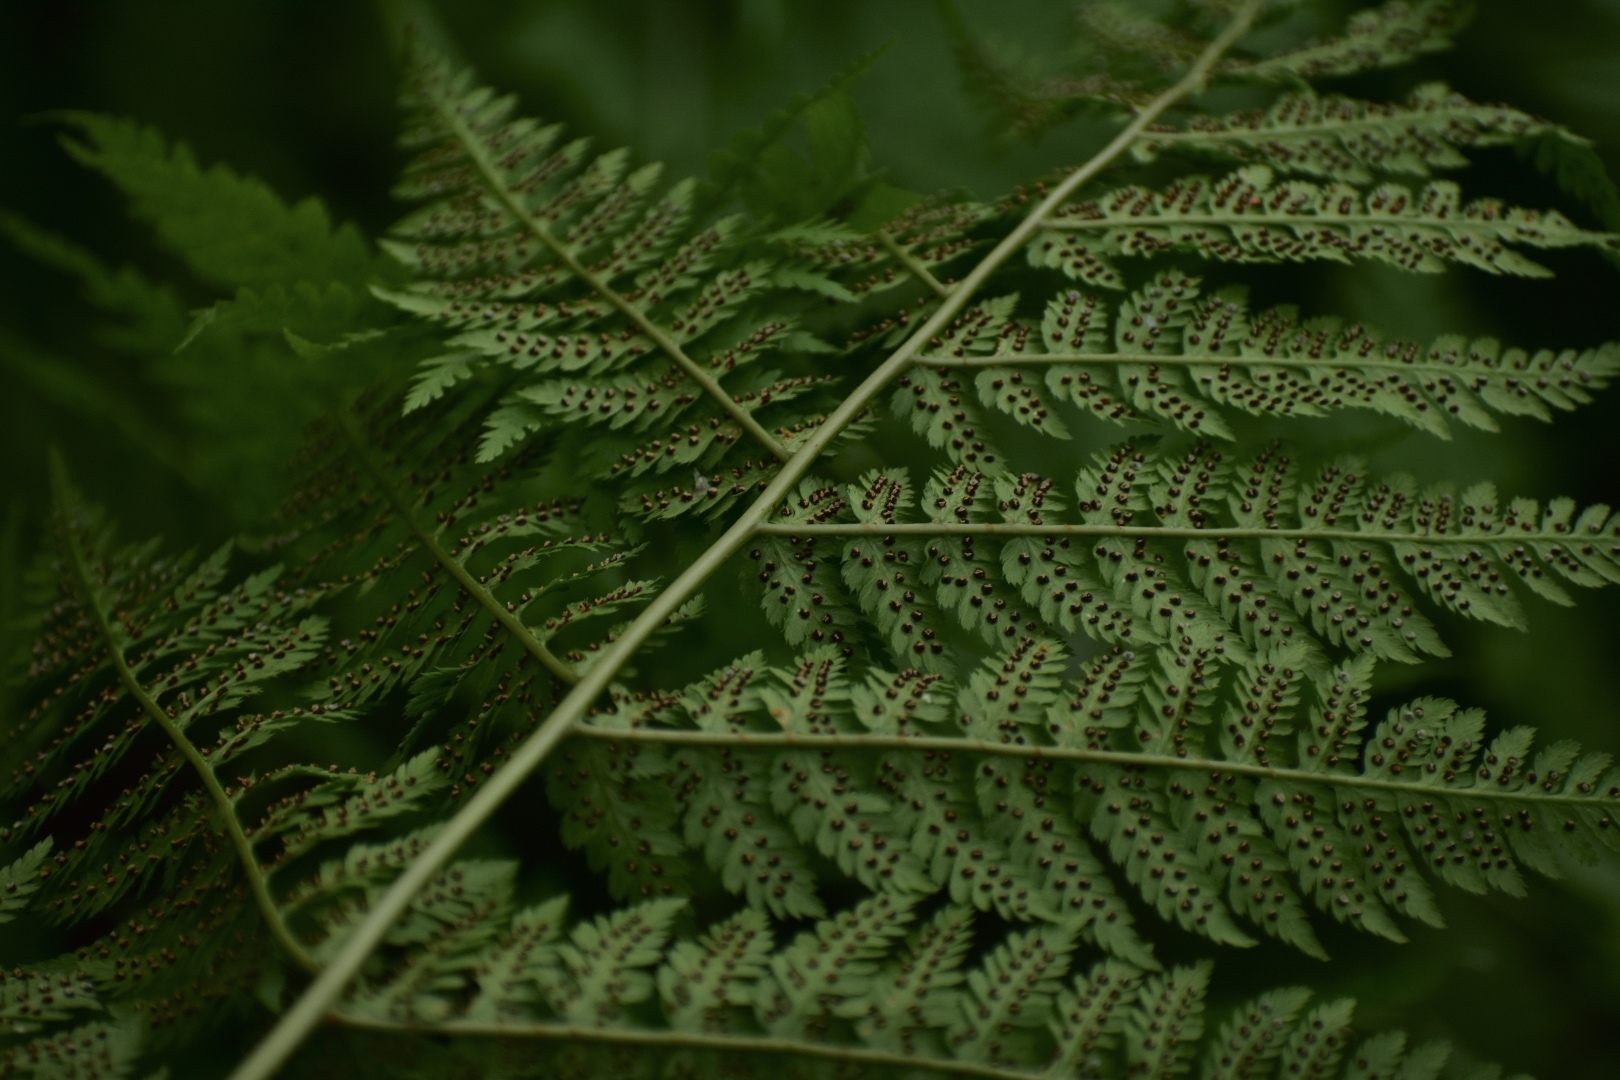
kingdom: Plantae
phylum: Tracheophyta
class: Polypodiopsida
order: Polypodiales
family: Dryopteridaceae
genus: Dryopteris
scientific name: Dryopteris expansa
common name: Northern buckler fern
